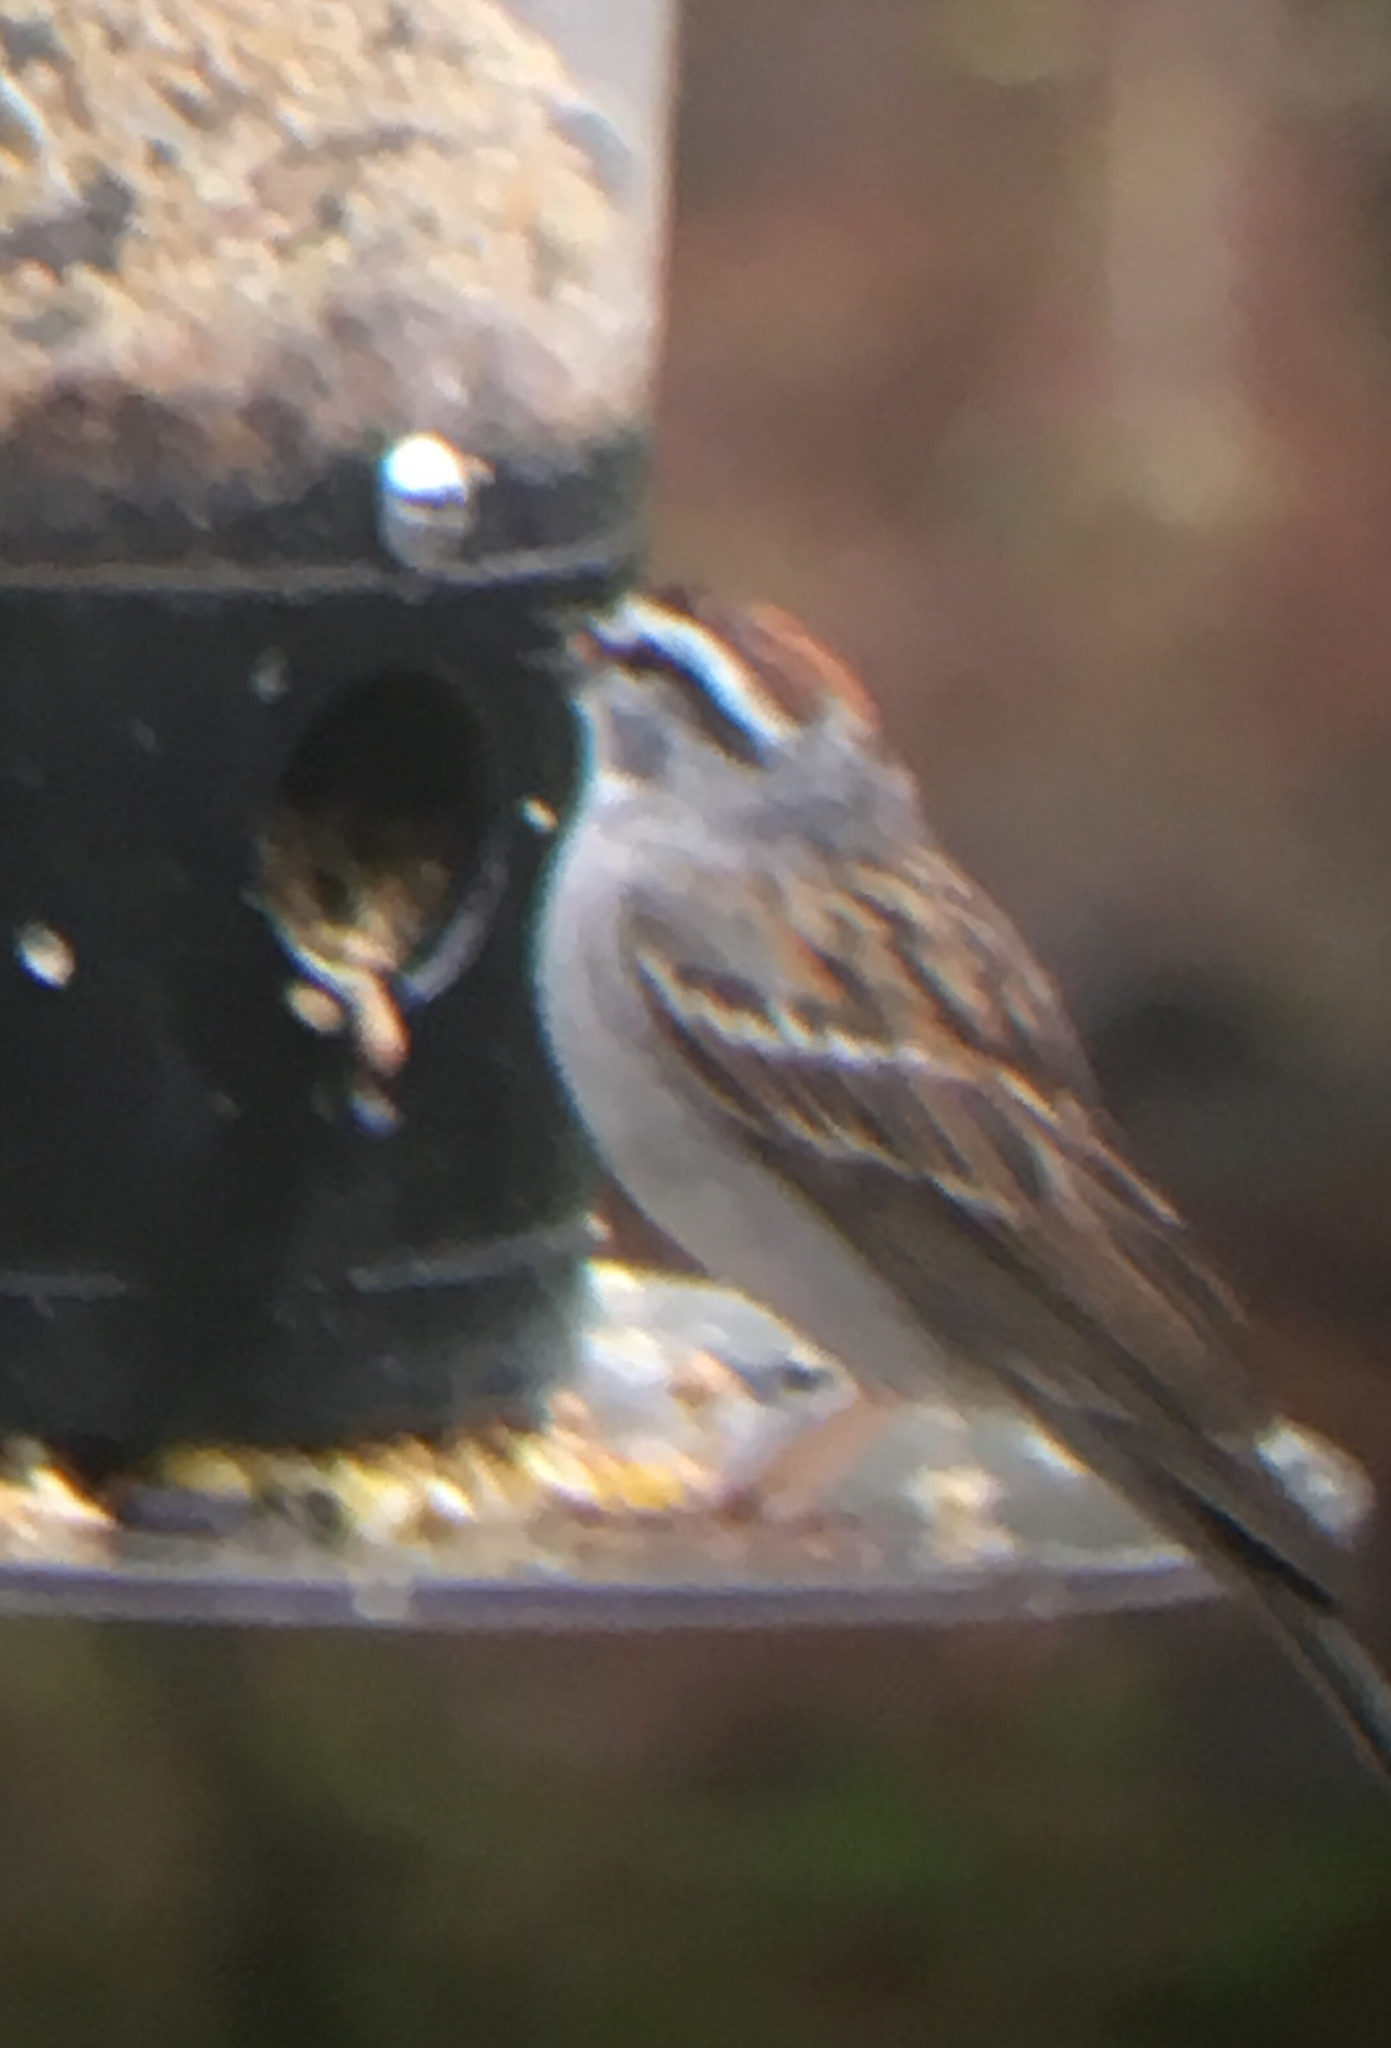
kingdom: Animalia
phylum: Chordata
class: Aves
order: Passeriformes
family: Passerellidae
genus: Spizella
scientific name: Spizella passerina
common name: Chipping sparrow
